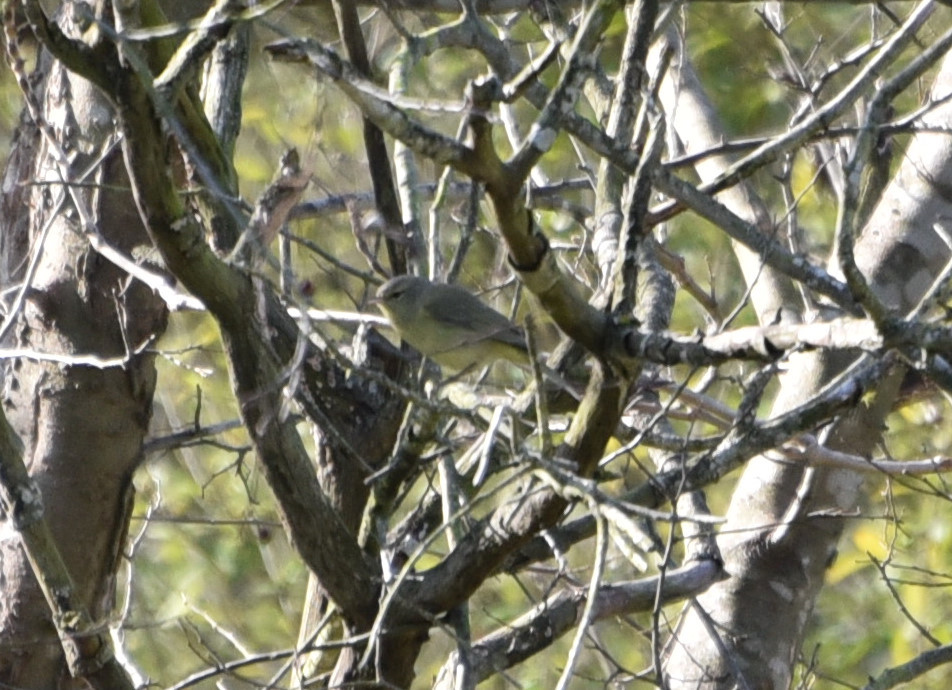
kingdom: Animalia
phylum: Chordata
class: Aves
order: Passeriformes
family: Parulidae
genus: Leiothlypis
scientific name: Leiothlypis celata
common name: Orange-crowned warbler
